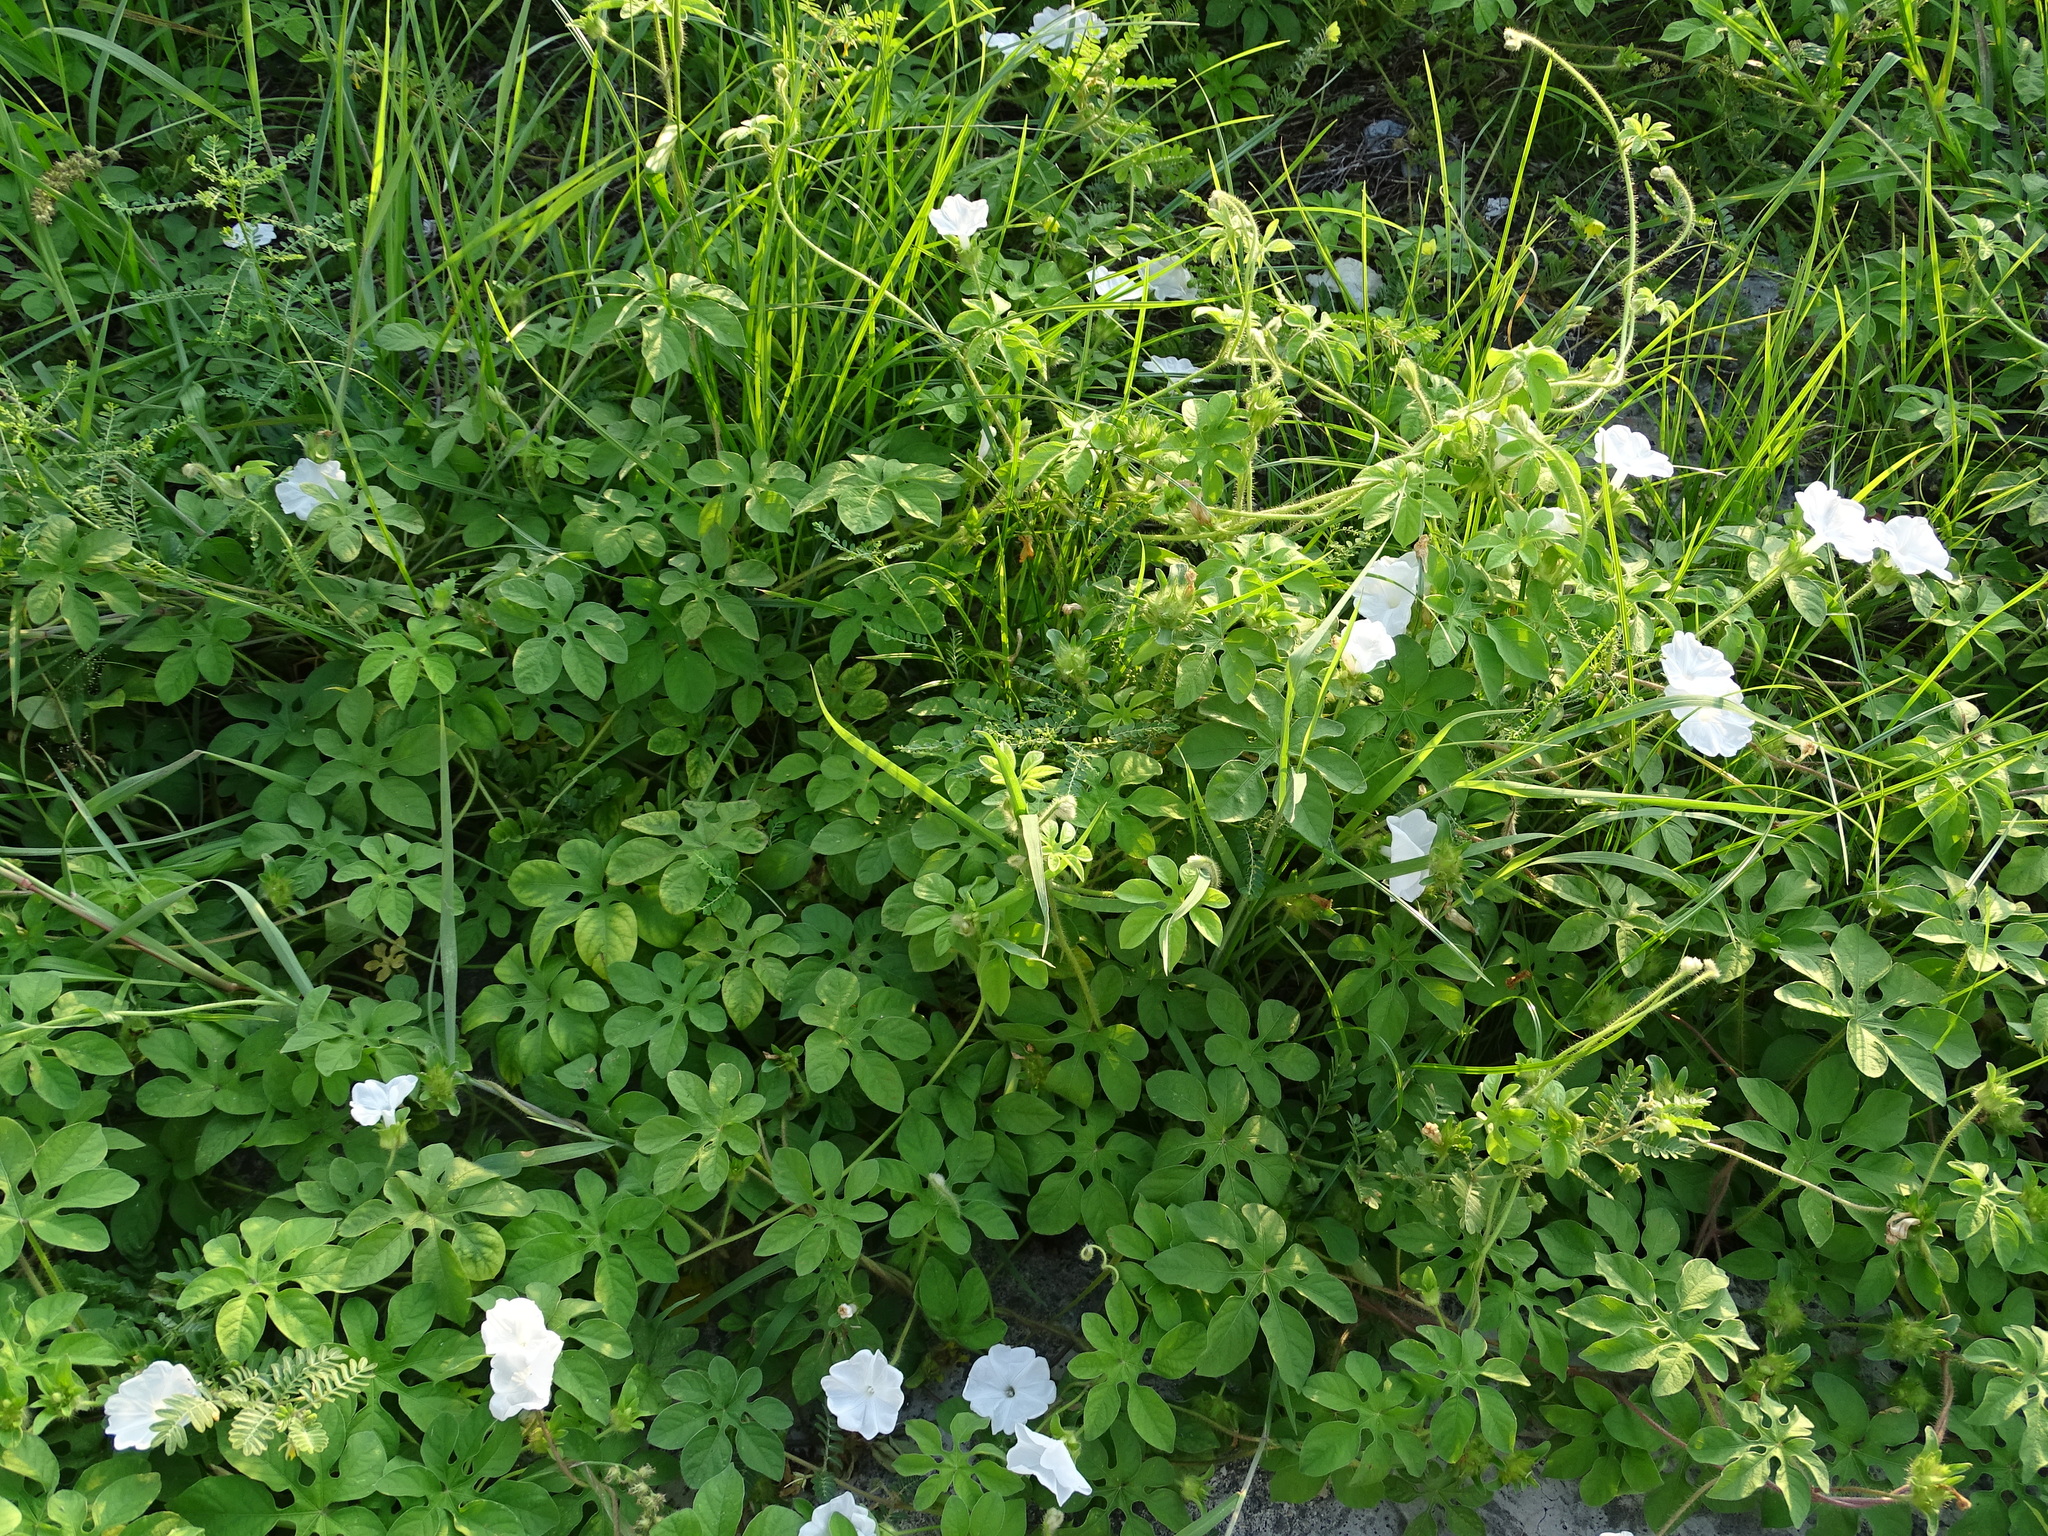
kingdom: Plantae
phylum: Tracheophyta
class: Magnoliopsida
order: Solanales
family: Convolvulaceae
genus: Ipomoea
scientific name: Ipomoea pes-tigridis
